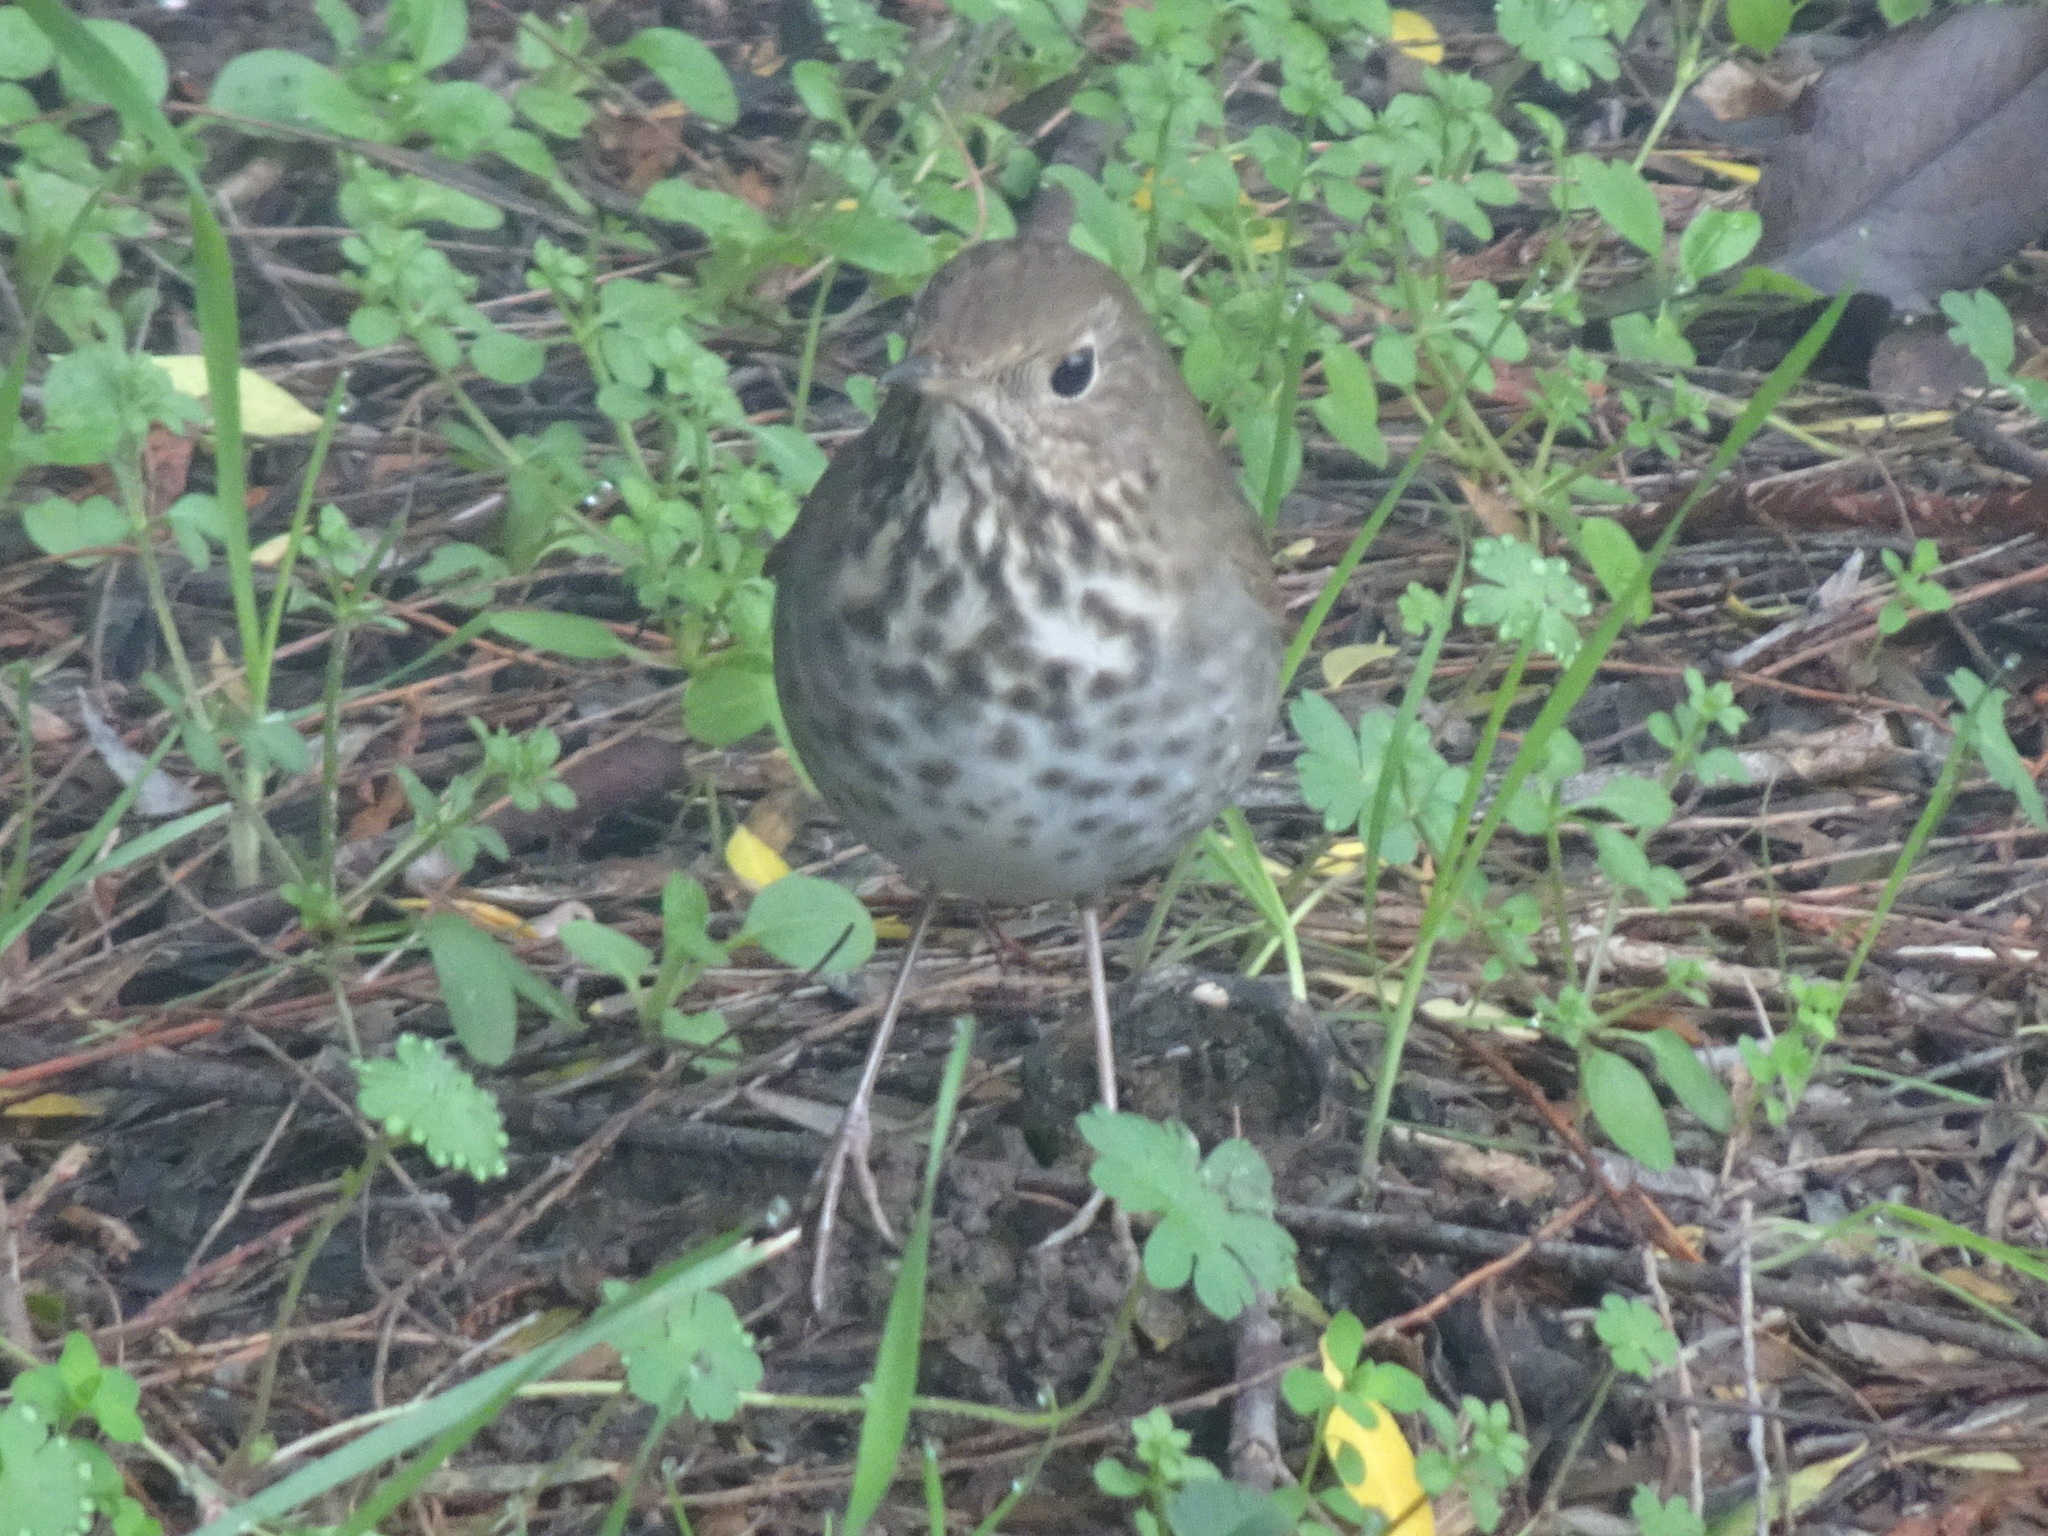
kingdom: Animalia
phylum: Chordata
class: Aves
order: Passeriformes
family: Turdidae
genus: Catharus
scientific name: Catharus guttatus
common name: Hermit thrush
